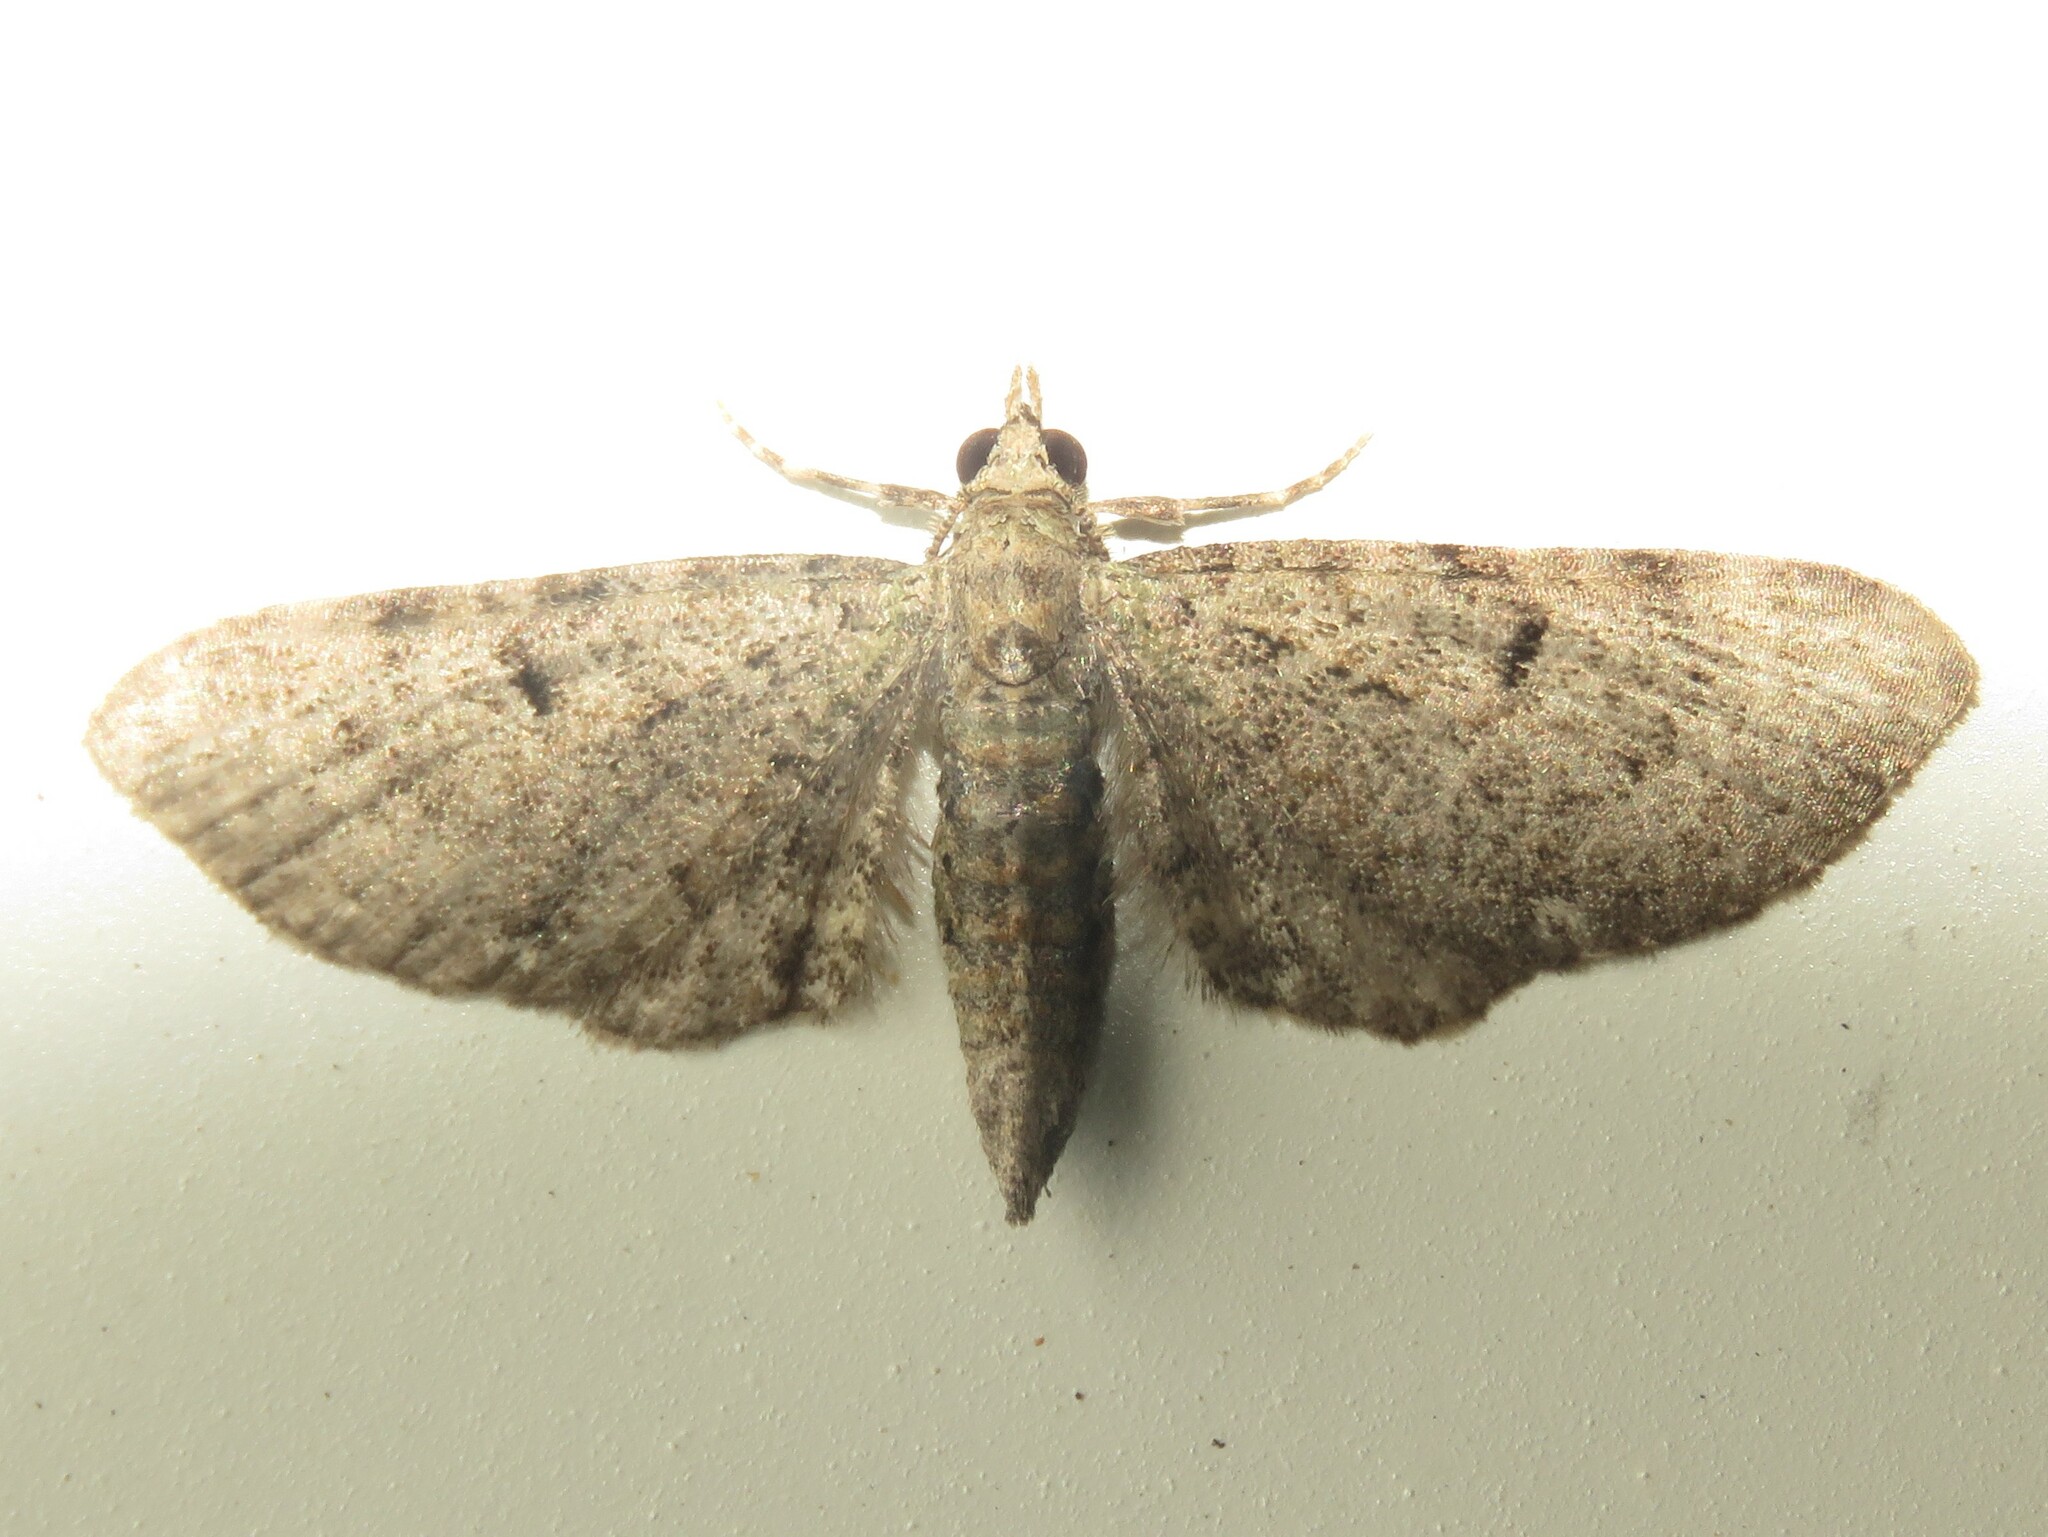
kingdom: Animalia
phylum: Arthropoda
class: Insecta
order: Lepidoptera
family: Geometridae
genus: Eupithecia
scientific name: Eupithecia miserulata
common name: Common eupithecia
